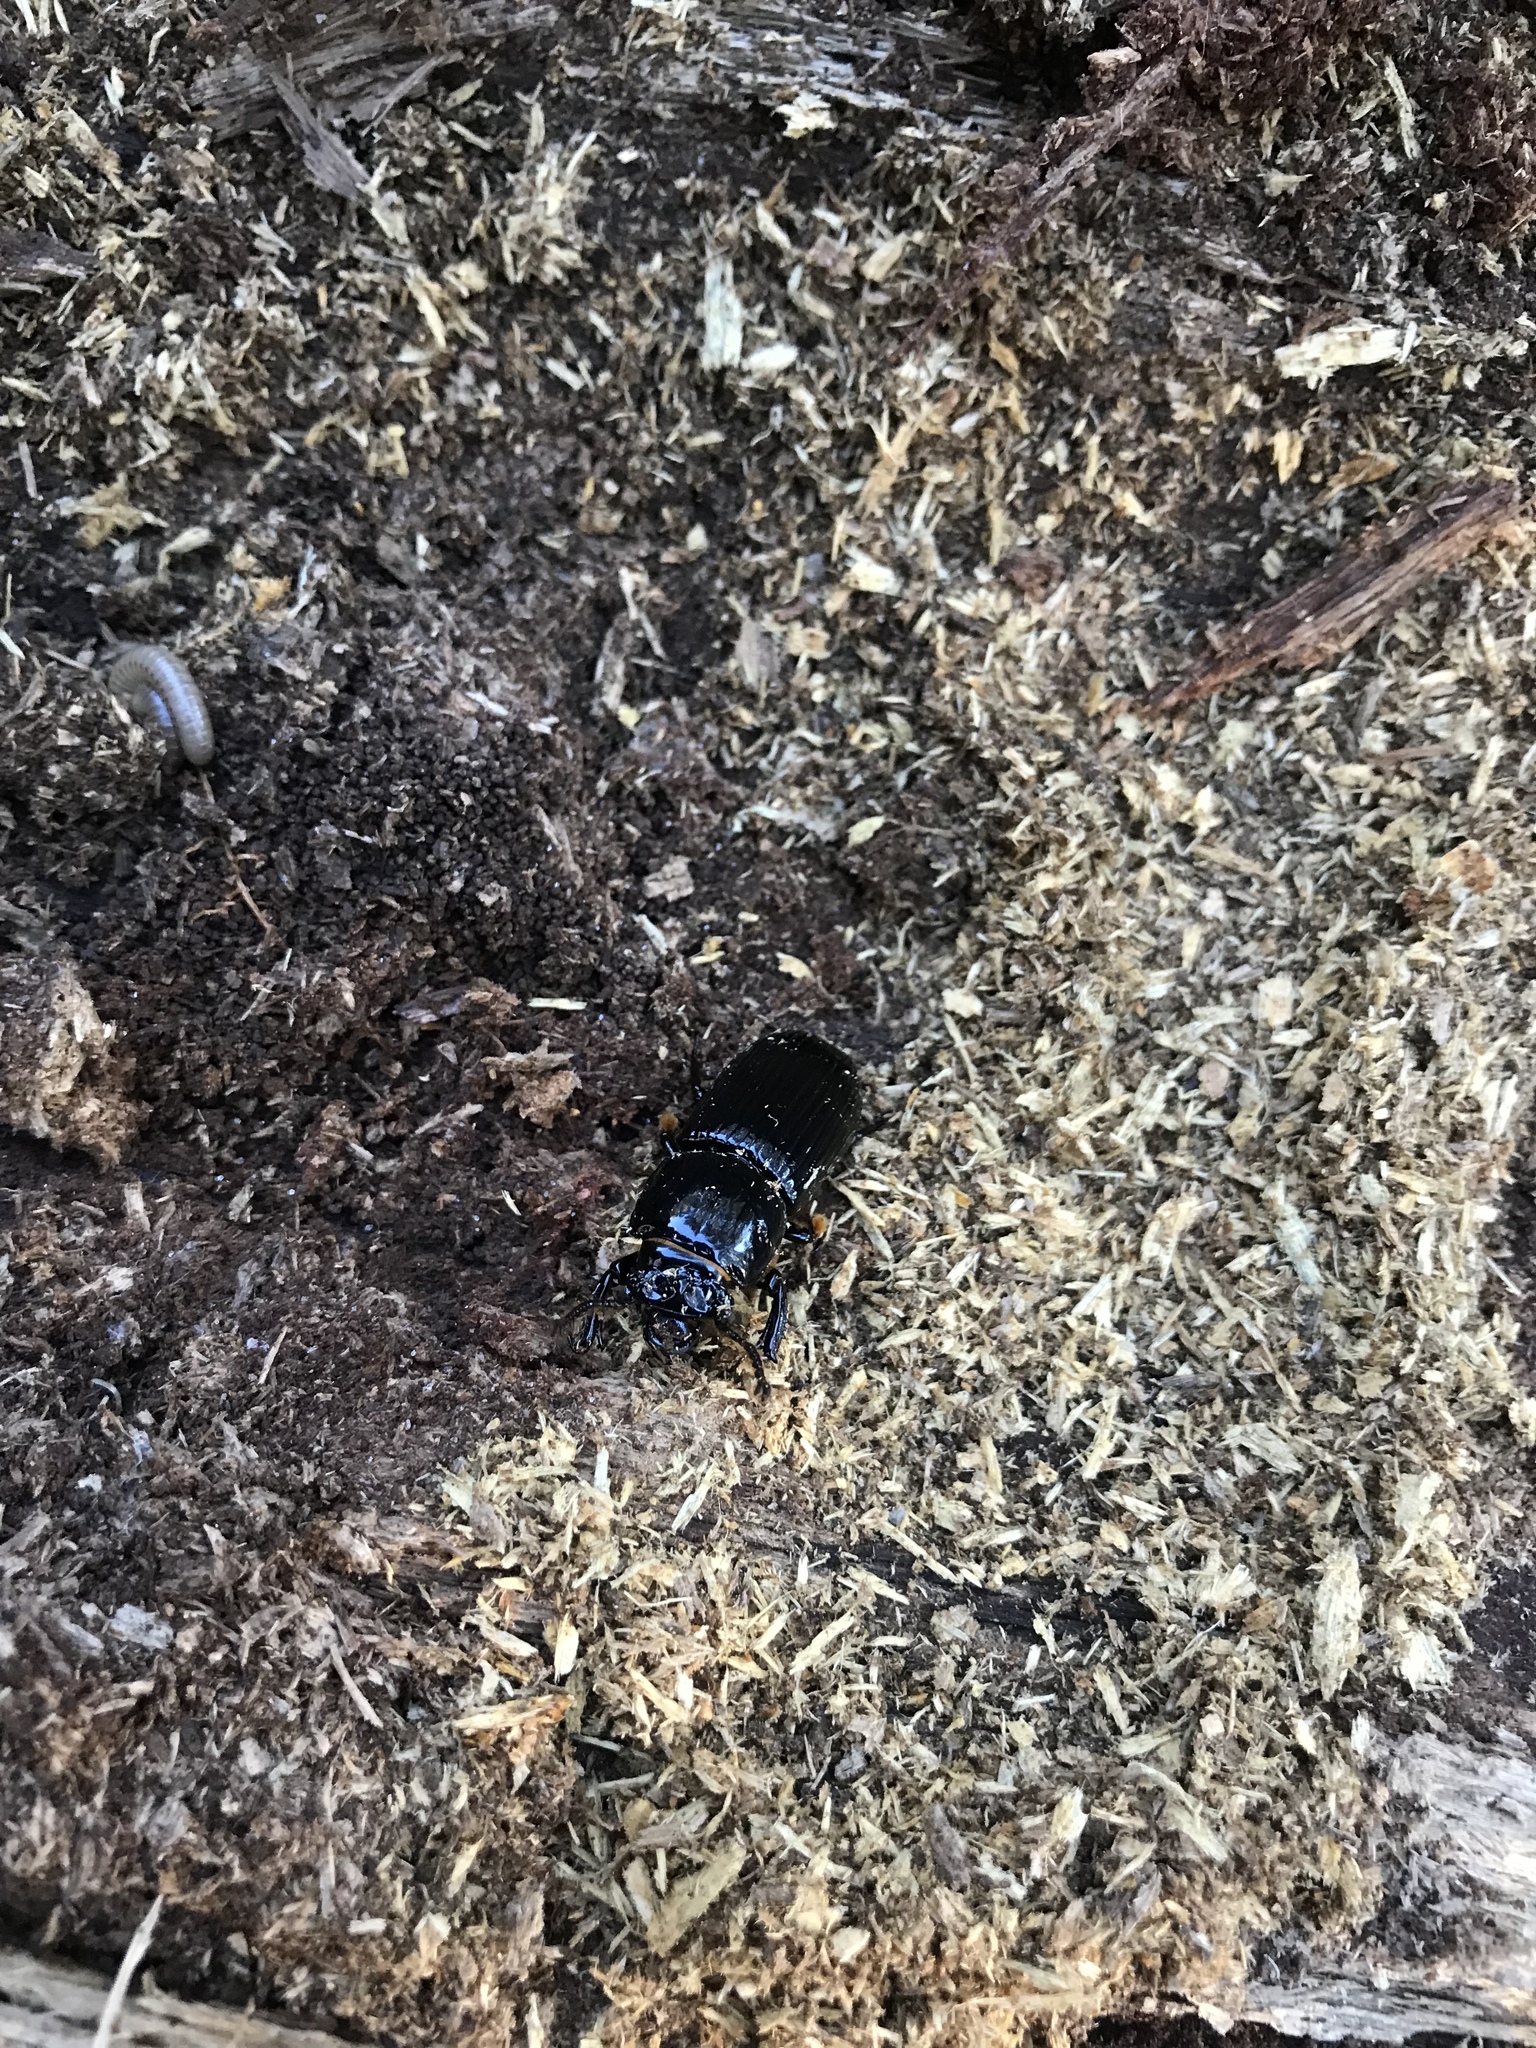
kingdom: Animalia
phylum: Arthropoda
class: Insecta
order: Coleoptera
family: Passalidae
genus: Odontotaenius
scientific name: Odontotaenius disjunctus
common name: Patent leather beetle
